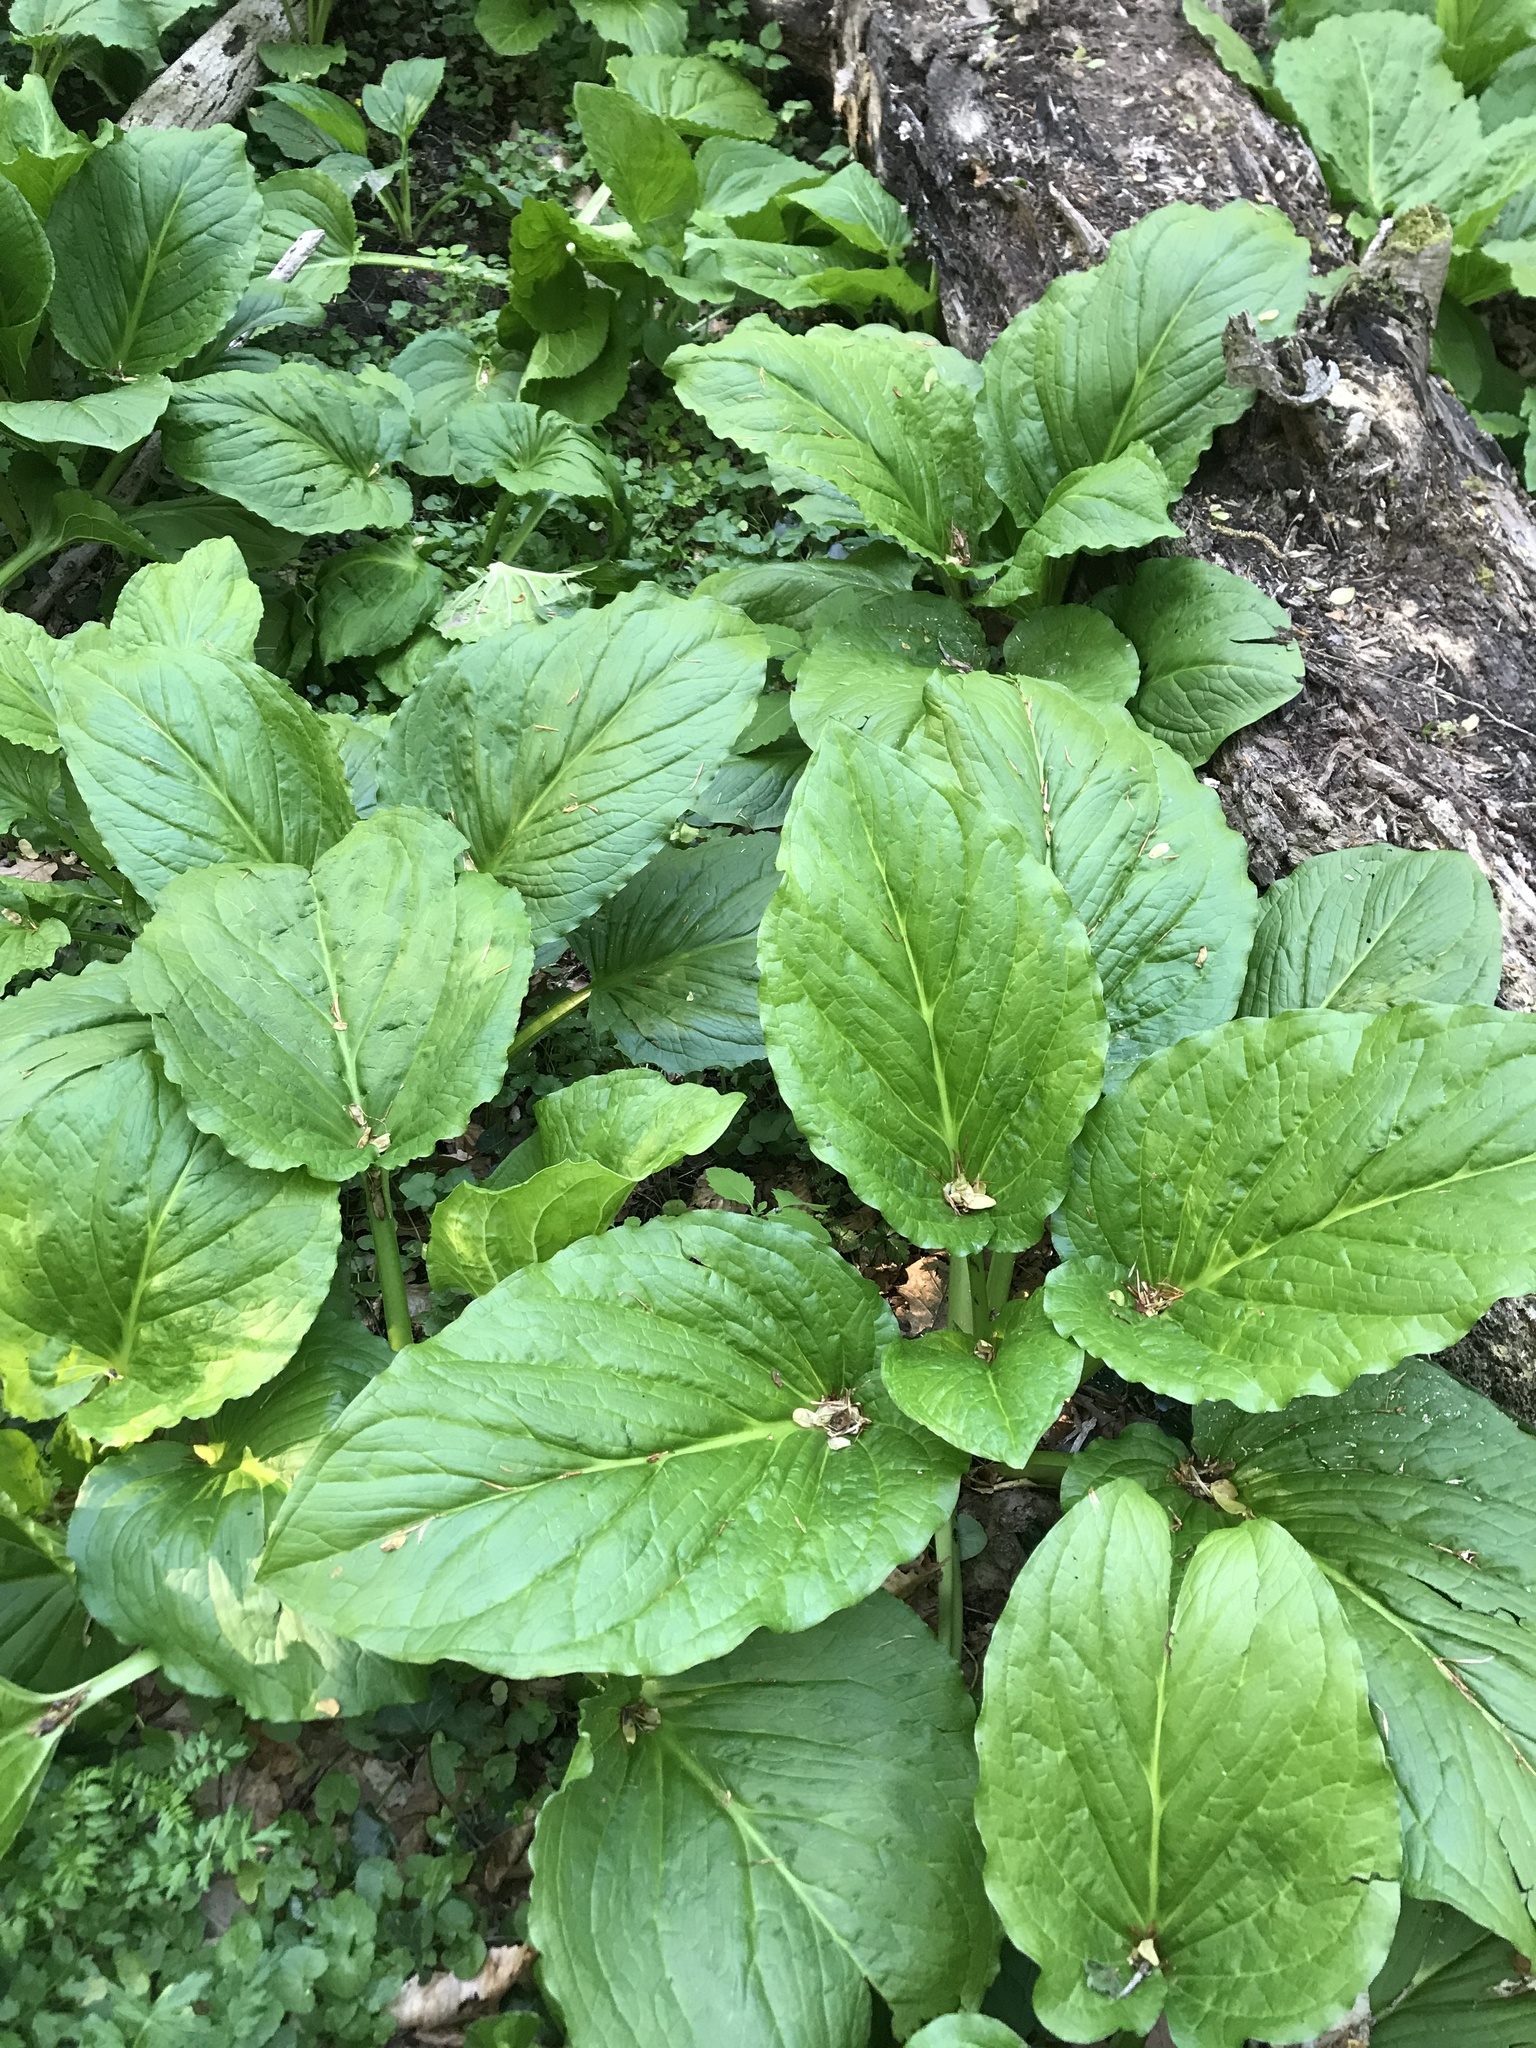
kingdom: Plantae
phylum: Tracheophyta
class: Liliopsida
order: Alismatales
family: Araceae
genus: Symplocarpus
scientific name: Symplocarpus foetidus
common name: Eastern skunk cabbage
